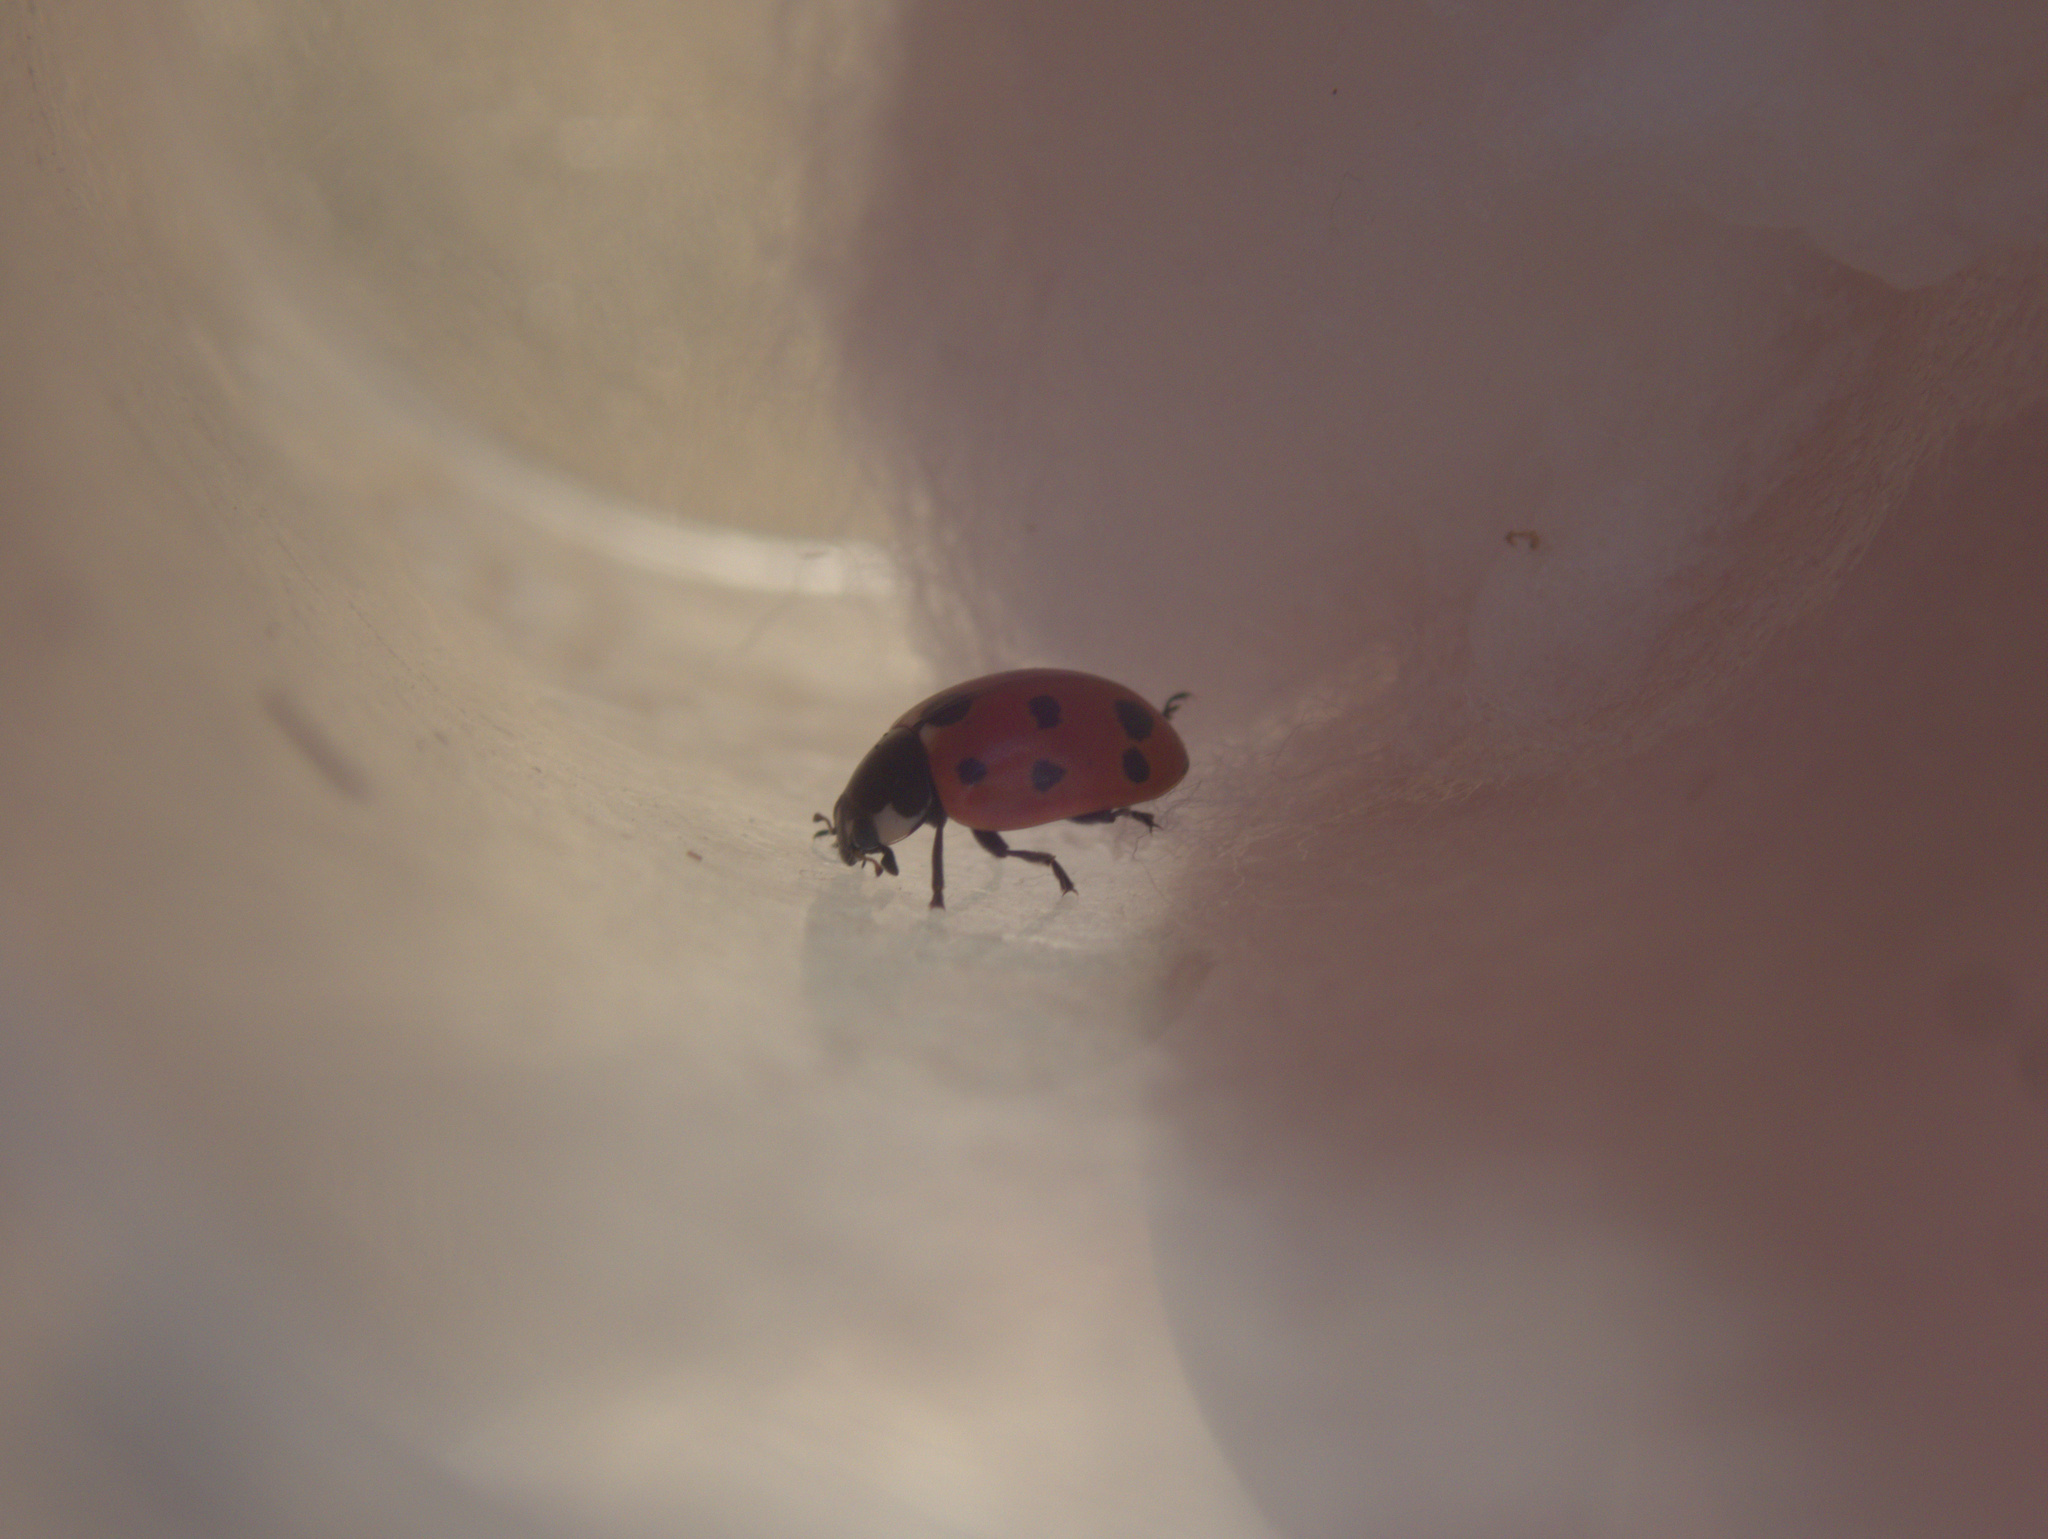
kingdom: Animalia
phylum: Arthropoda
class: Insecta
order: Coleoptera
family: Coccinellidae
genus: Coccinella
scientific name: Coccinella undecimpunctata
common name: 11-spot ladybird
